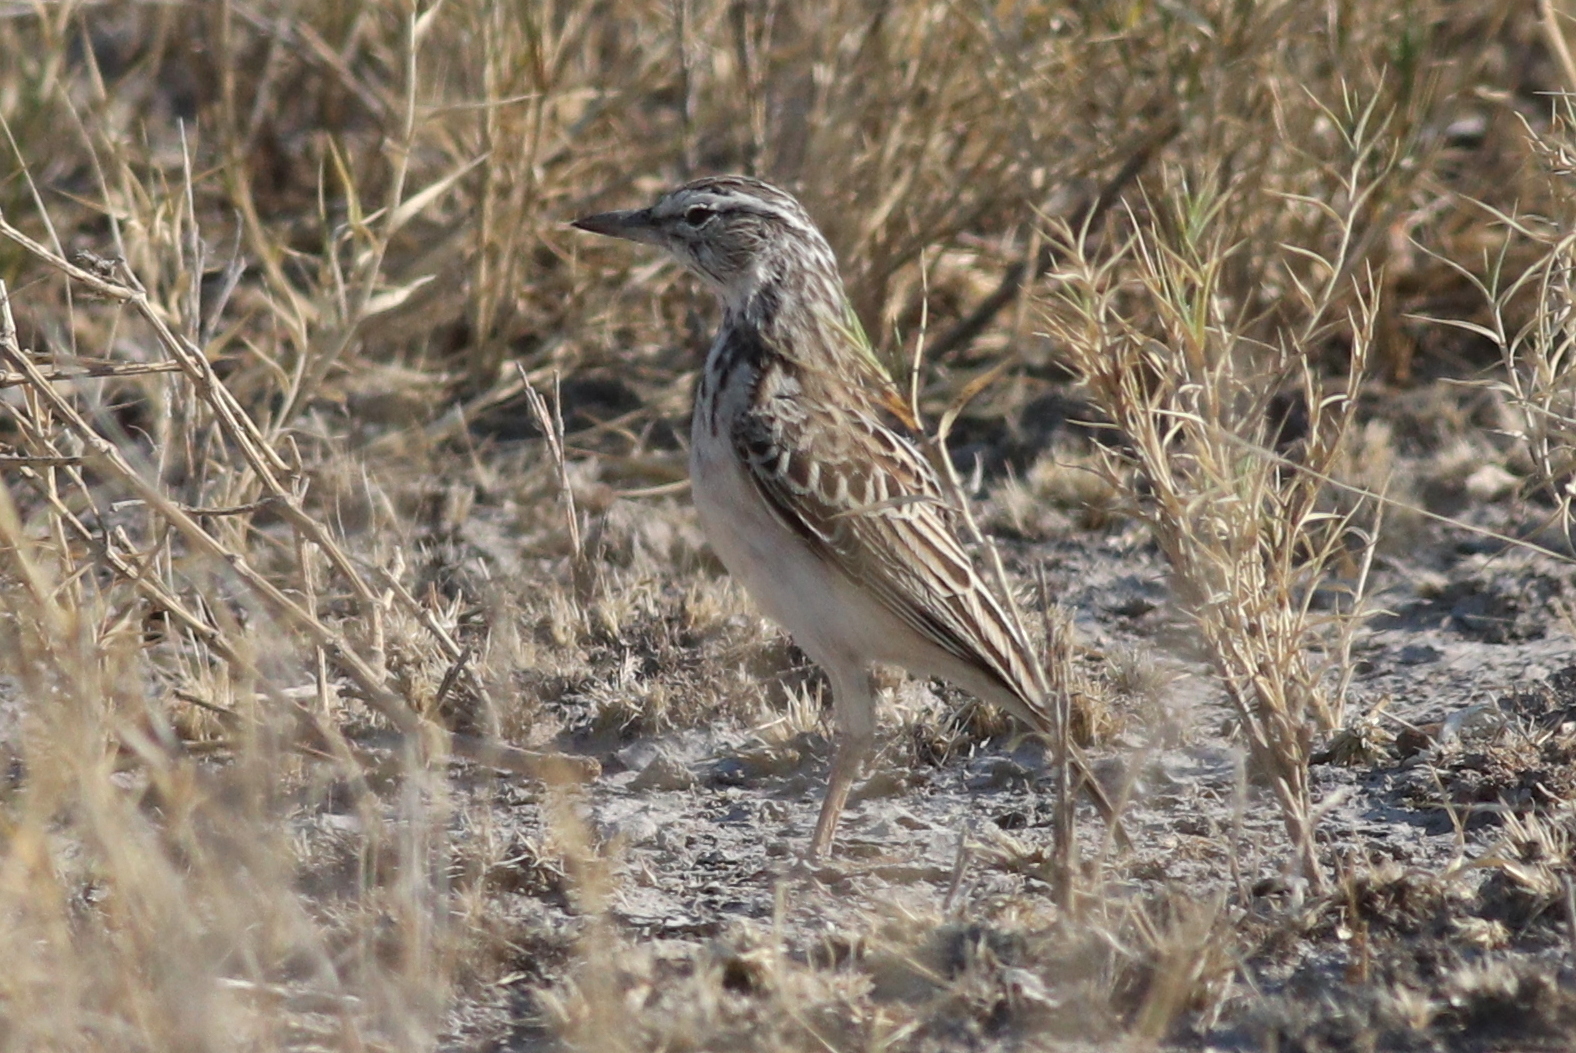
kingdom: Animalia
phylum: Chordata
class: Aves
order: Passeriformes
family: Alaudidae
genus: Calendulauda
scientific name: Calendulauda sabota
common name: Sabota lark
